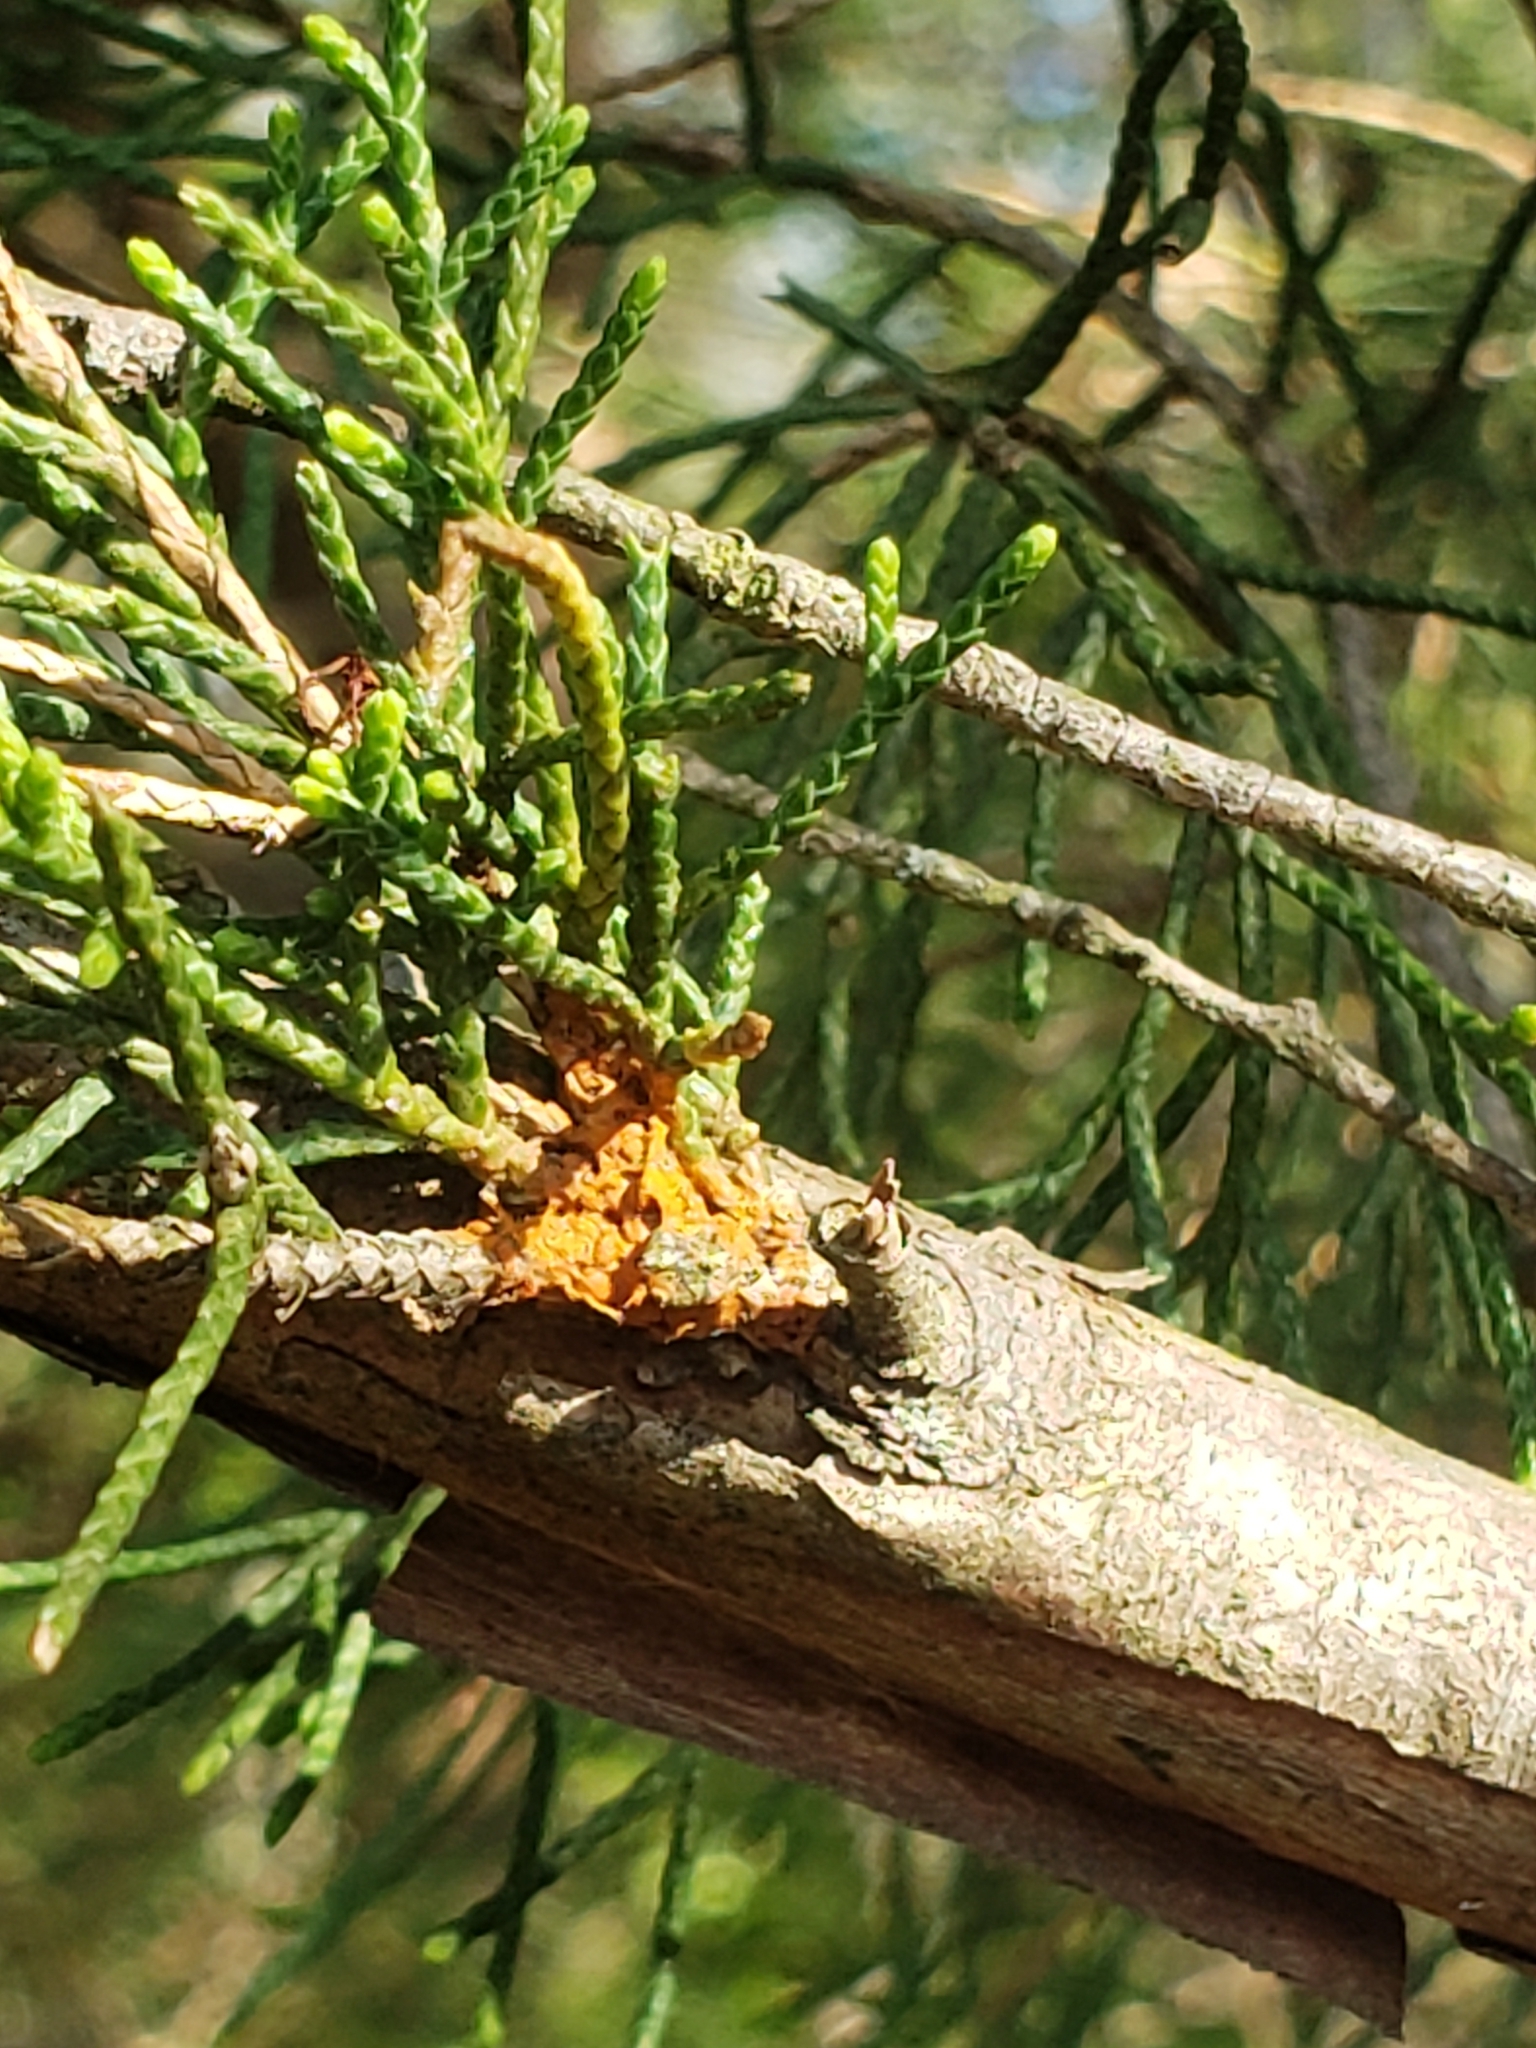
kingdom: Fungi
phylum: Basidiomycota
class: Pucciniomycetes
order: Pucciniales
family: Gymnosporangiaceae
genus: Gymnosporangium
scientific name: Gymnosporangium clavipes
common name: Quince rust
